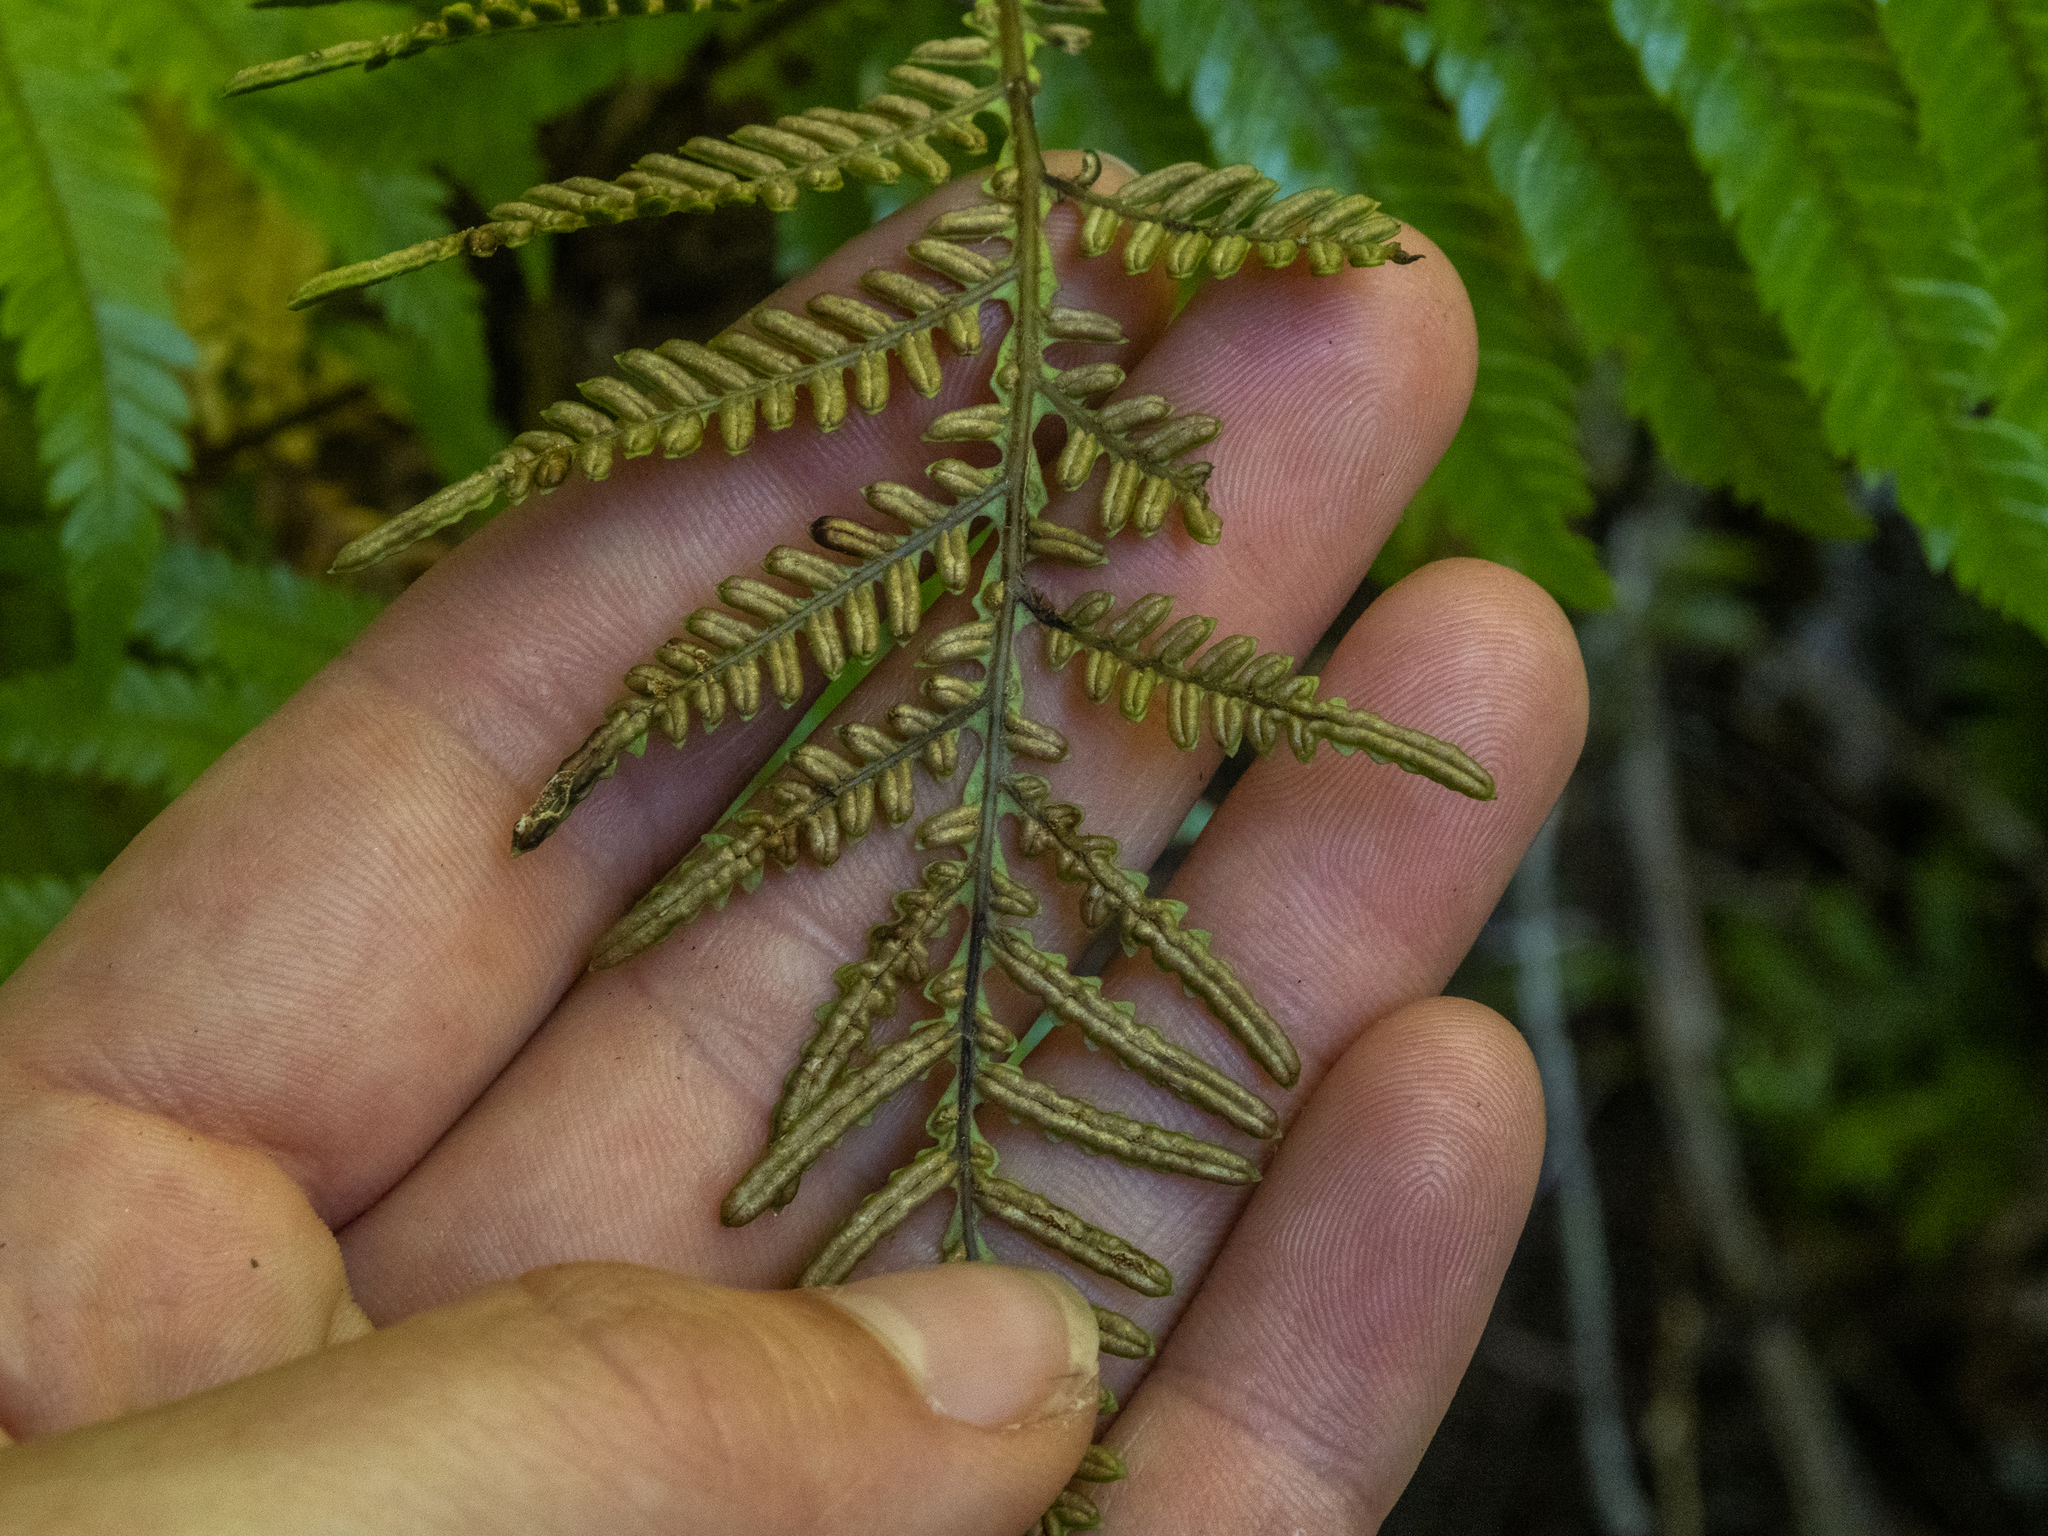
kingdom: Plantae
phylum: Tracheophyta
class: Polypodiopsida
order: Polypodiales
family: Blechnaceae
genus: Diploblechnum
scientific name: Diploblechnum fraseri
